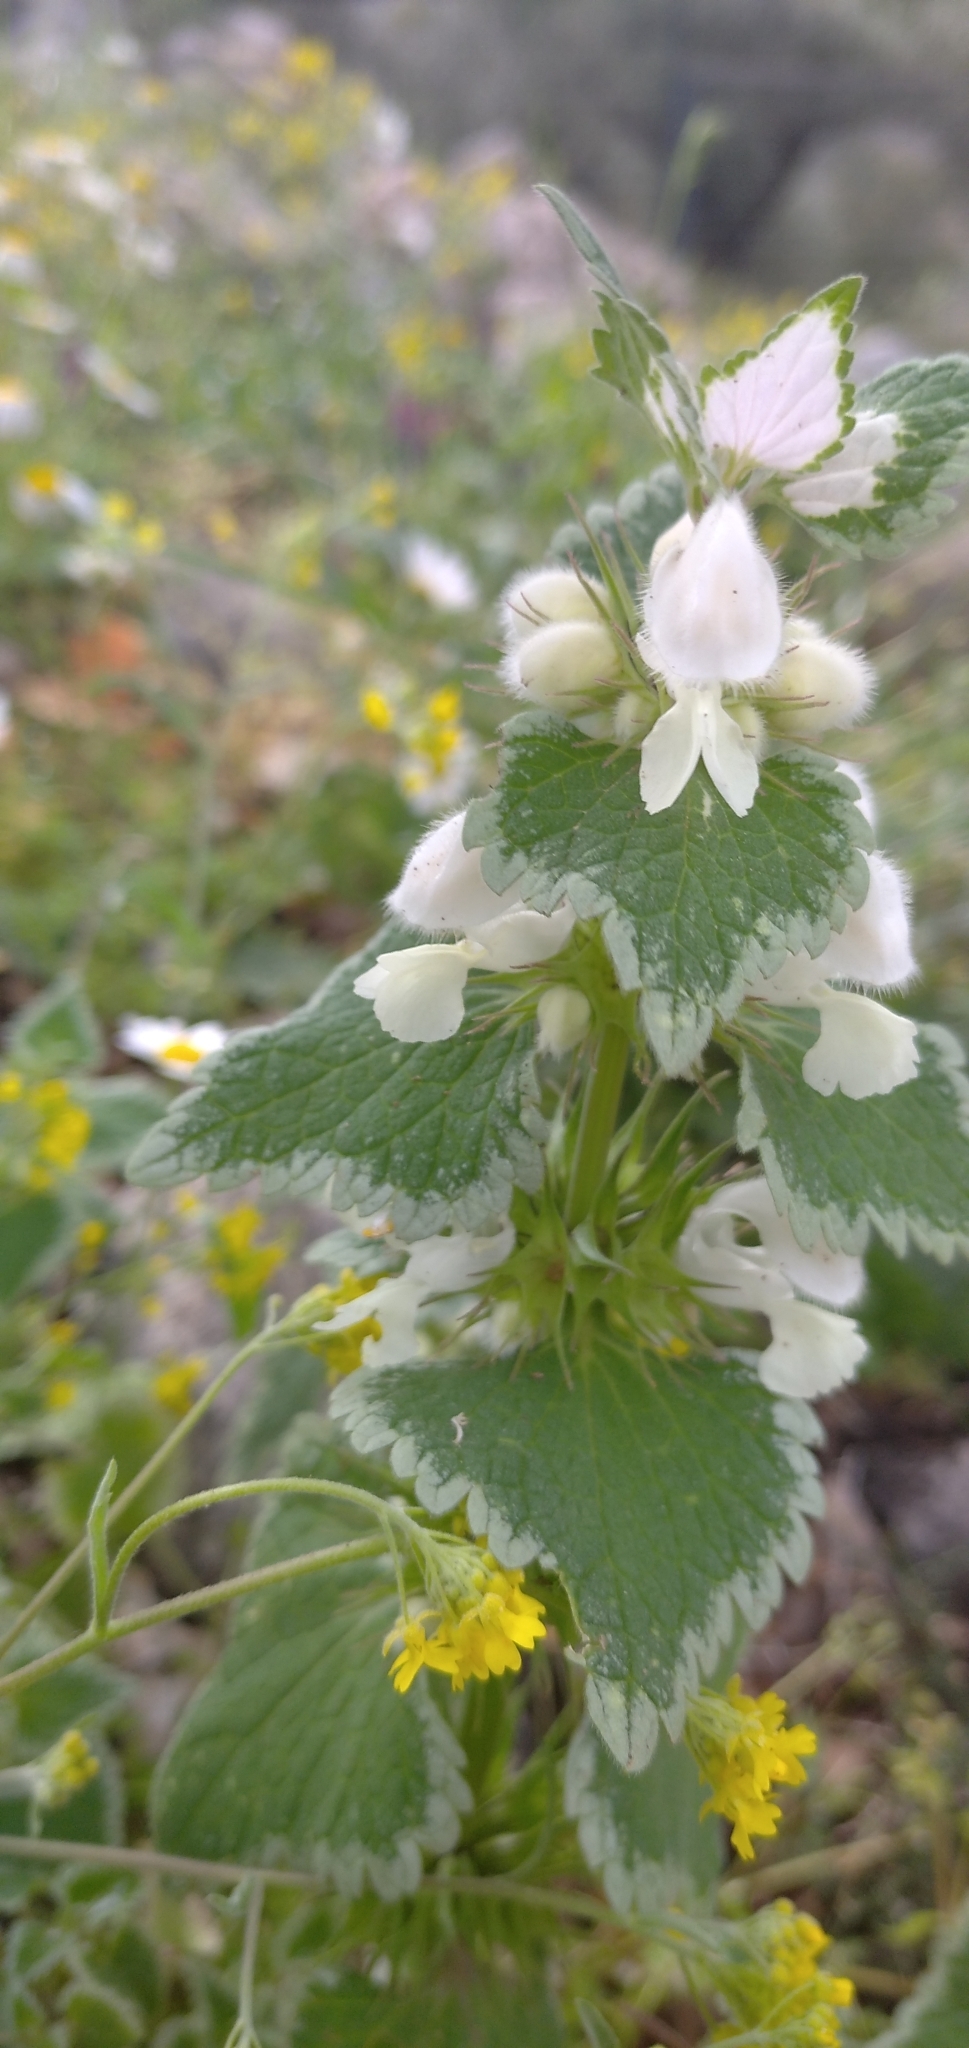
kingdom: Plantae
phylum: Tracheophyta
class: Magnoliopsida
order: Lamiales
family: Lamiaceae
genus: Lamium
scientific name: Lamium moschatum
